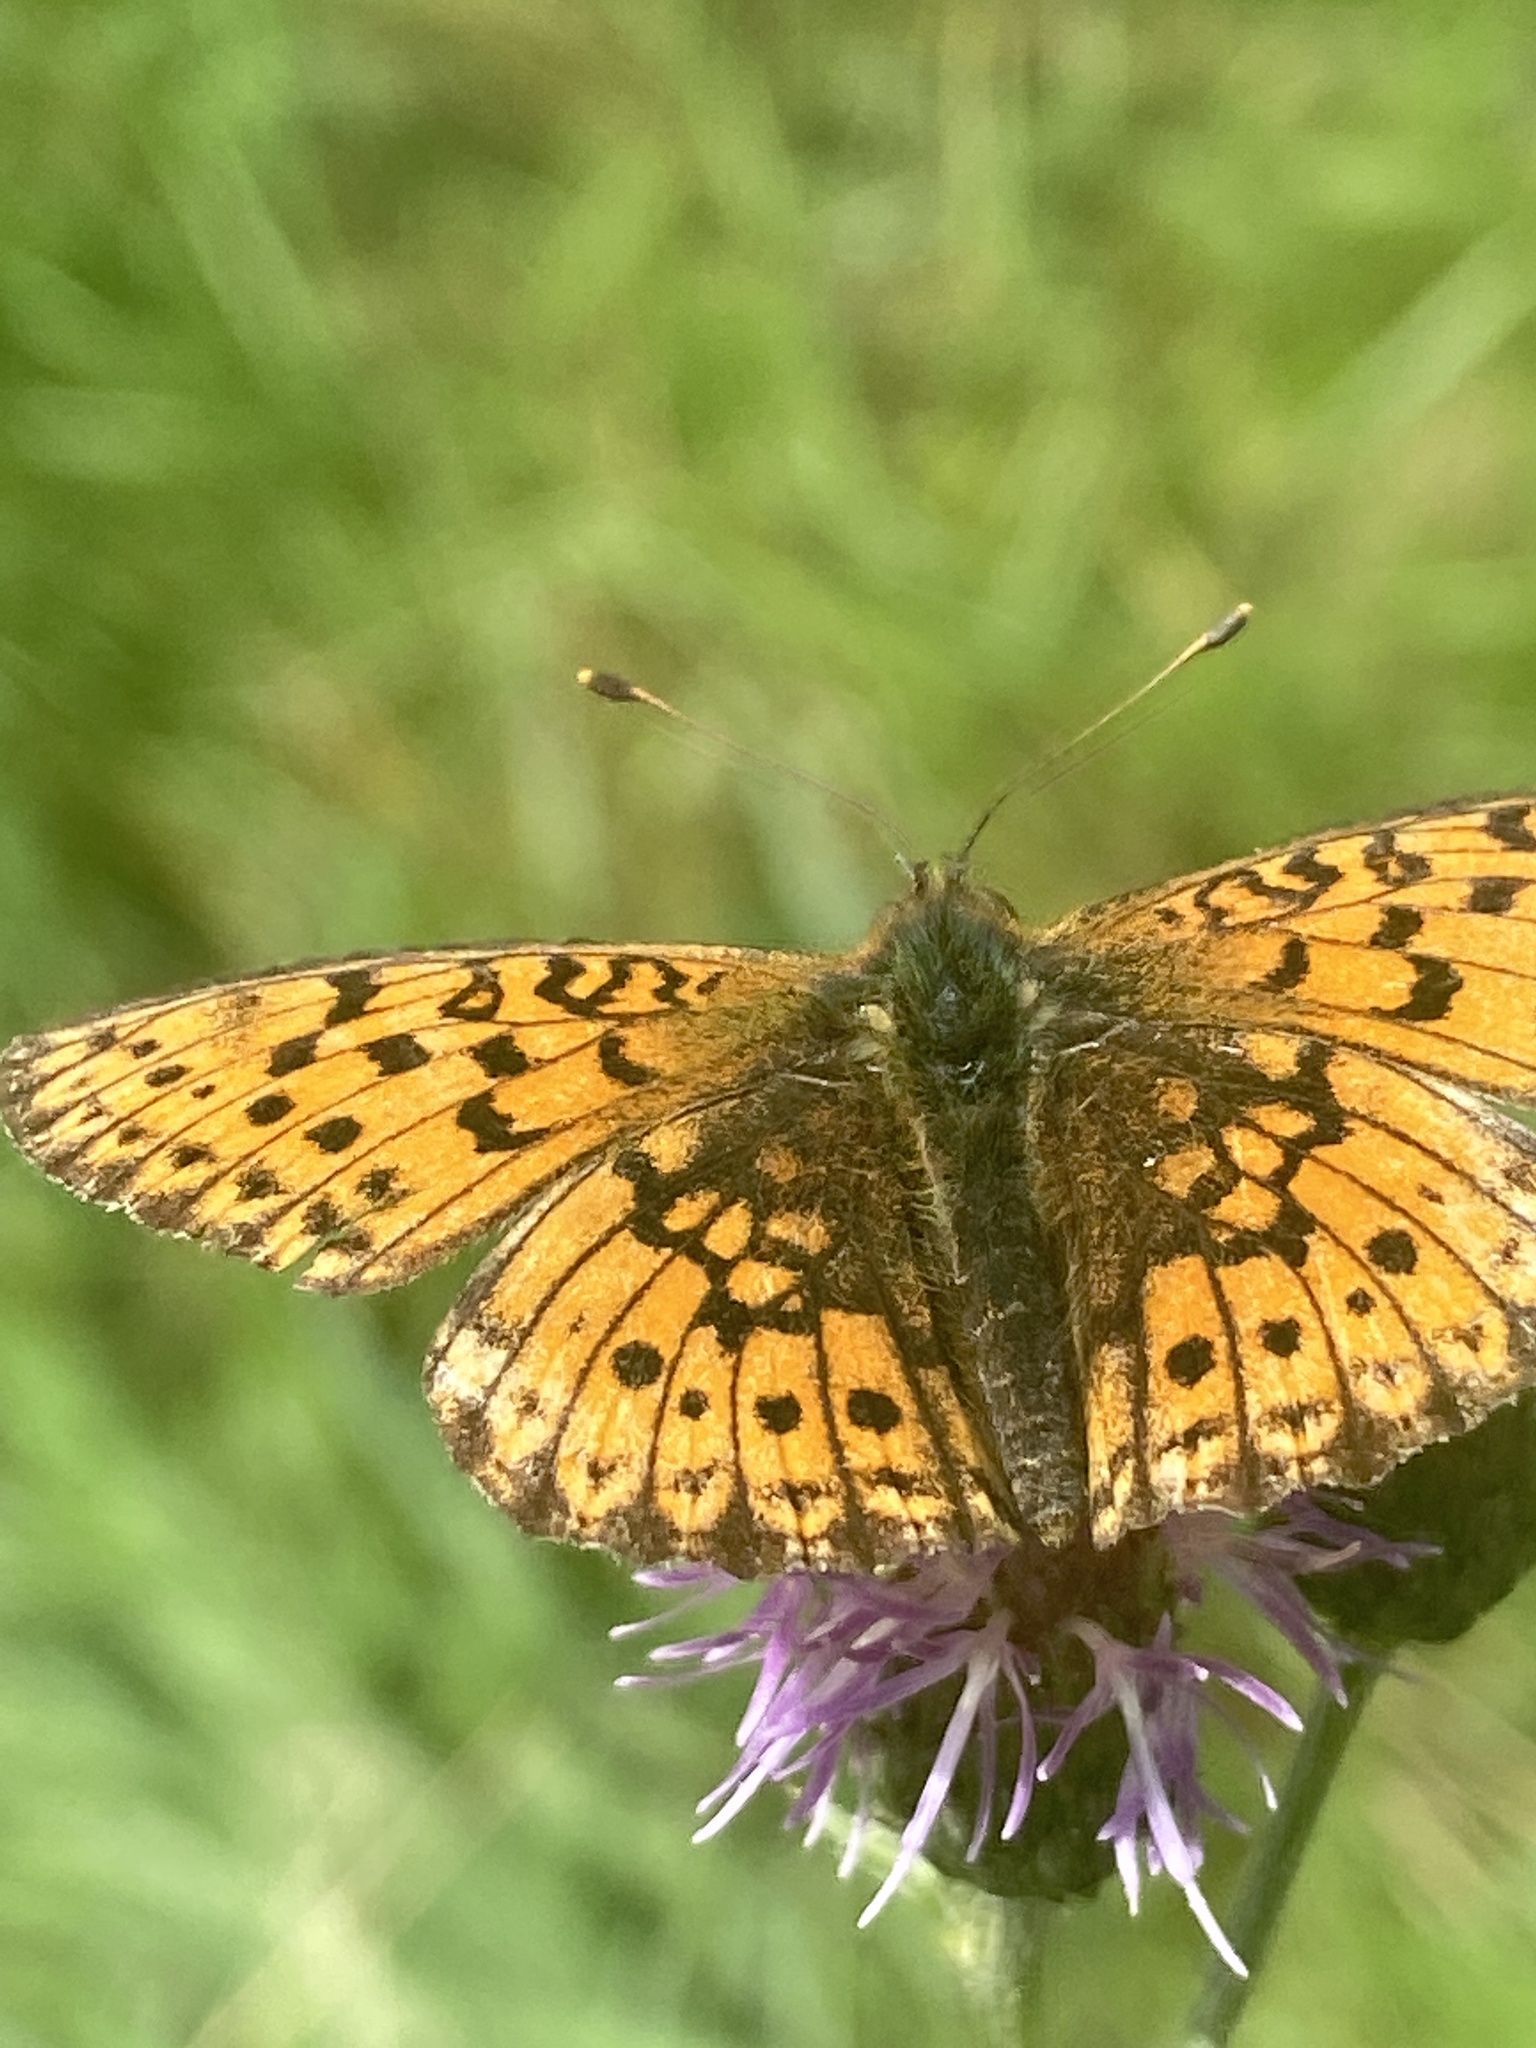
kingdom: Animalia
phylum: Arthropoda
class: Insecta
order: Lepidoptera
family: Nymphalidae
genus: Brenthis
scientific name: Brenthis ino
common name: Lesser marbled fritillary
